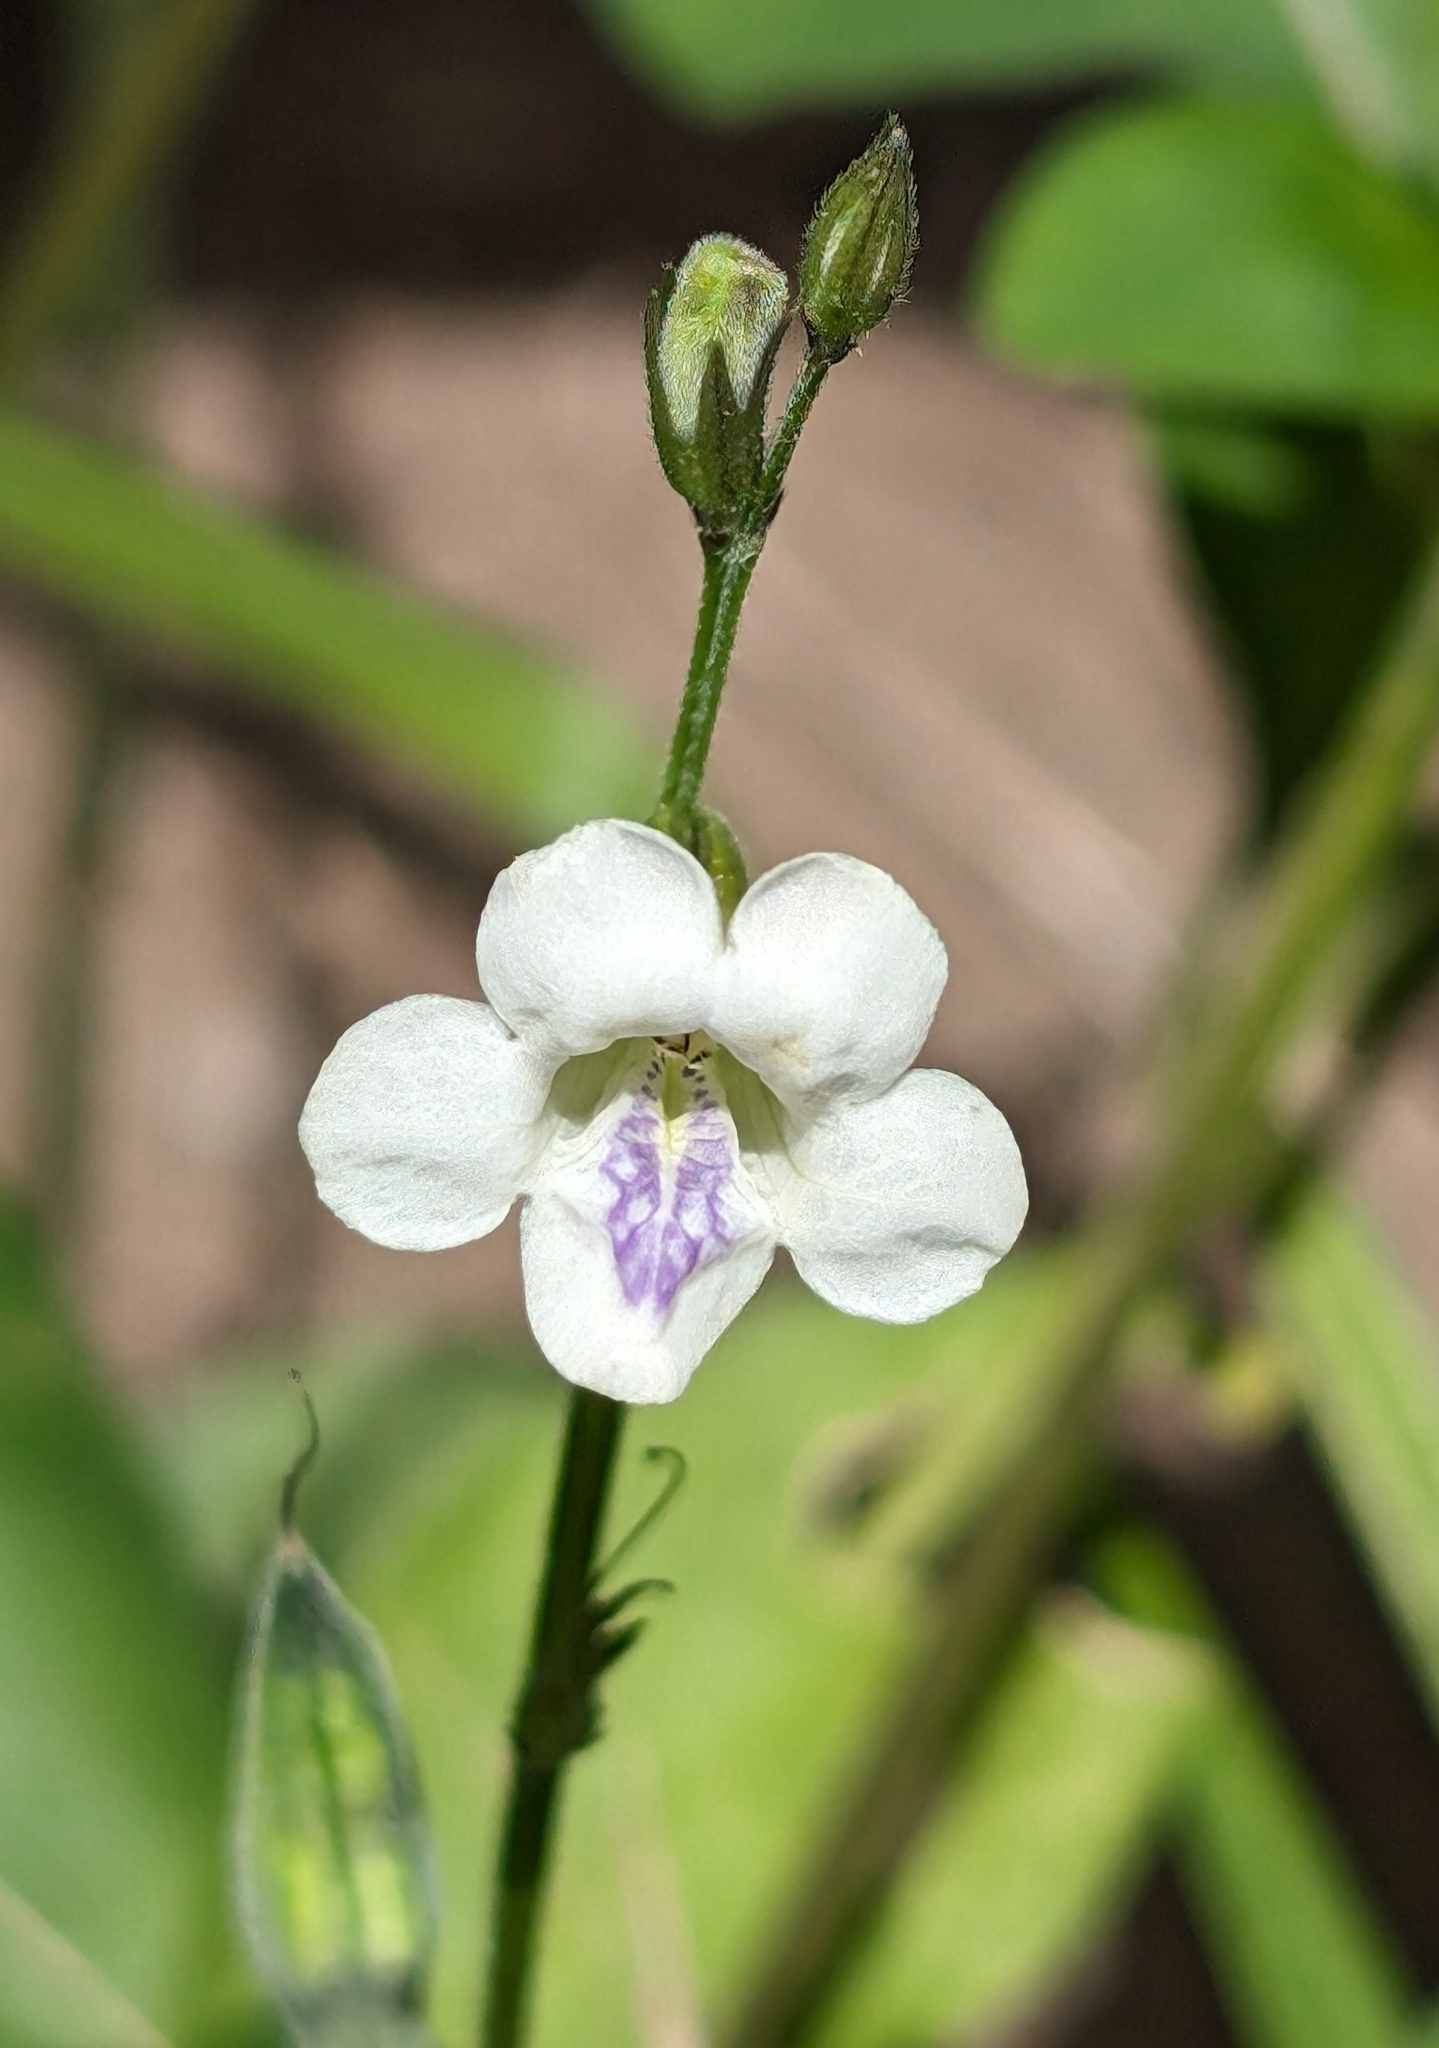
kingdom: Plantae
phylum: Tracheophyta
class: Magnoliopsida
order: Lamiales
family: Acanthaceae
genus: Asystasia
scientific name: Asystasia intrusa
